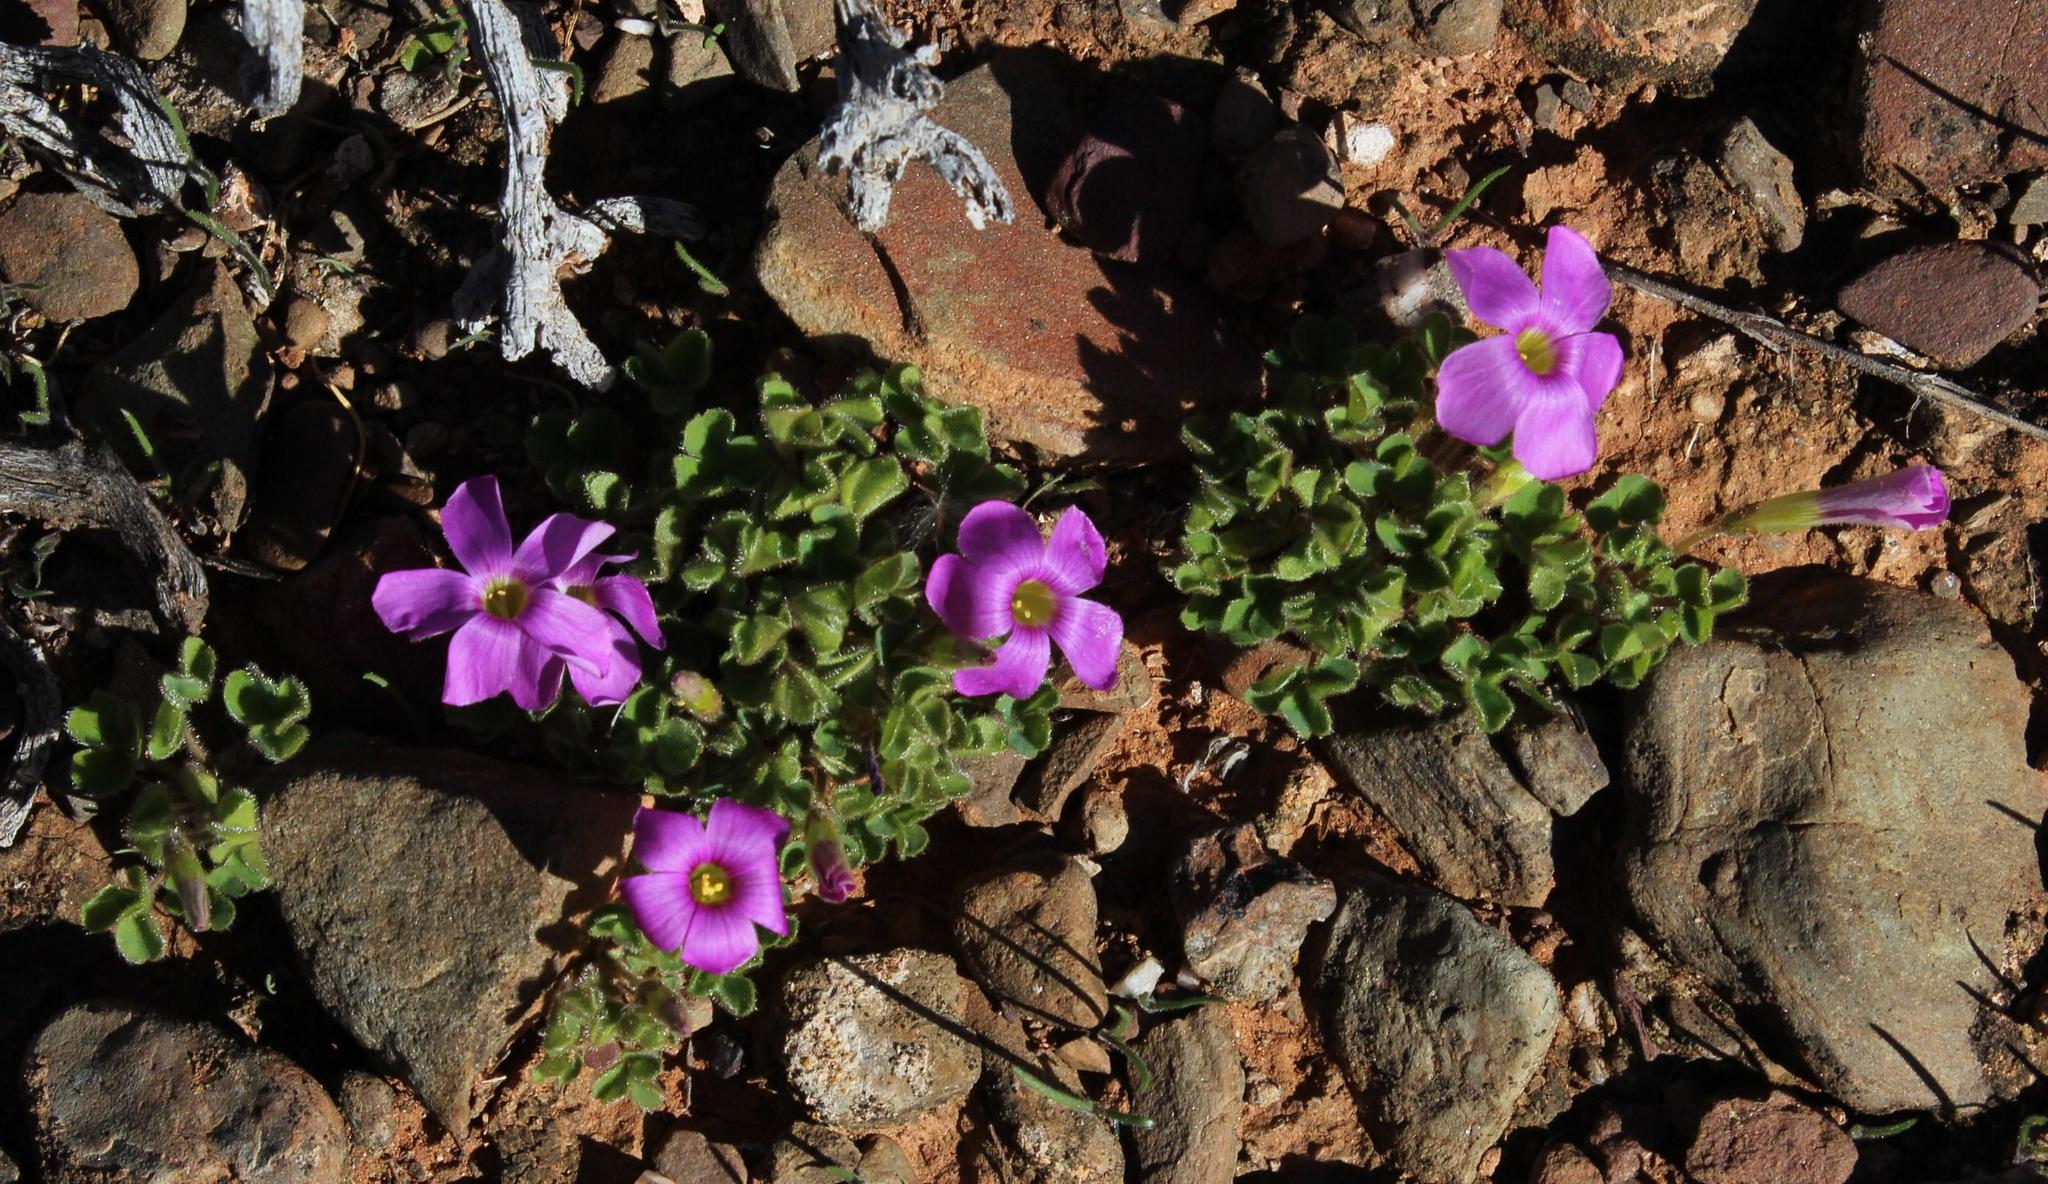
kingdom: Plantae
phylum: Tracheophyta
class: Magnoliopsida
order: Oxalidales
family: Oxalidaceae
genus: Oxalis
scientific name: Oxalis imbricata
